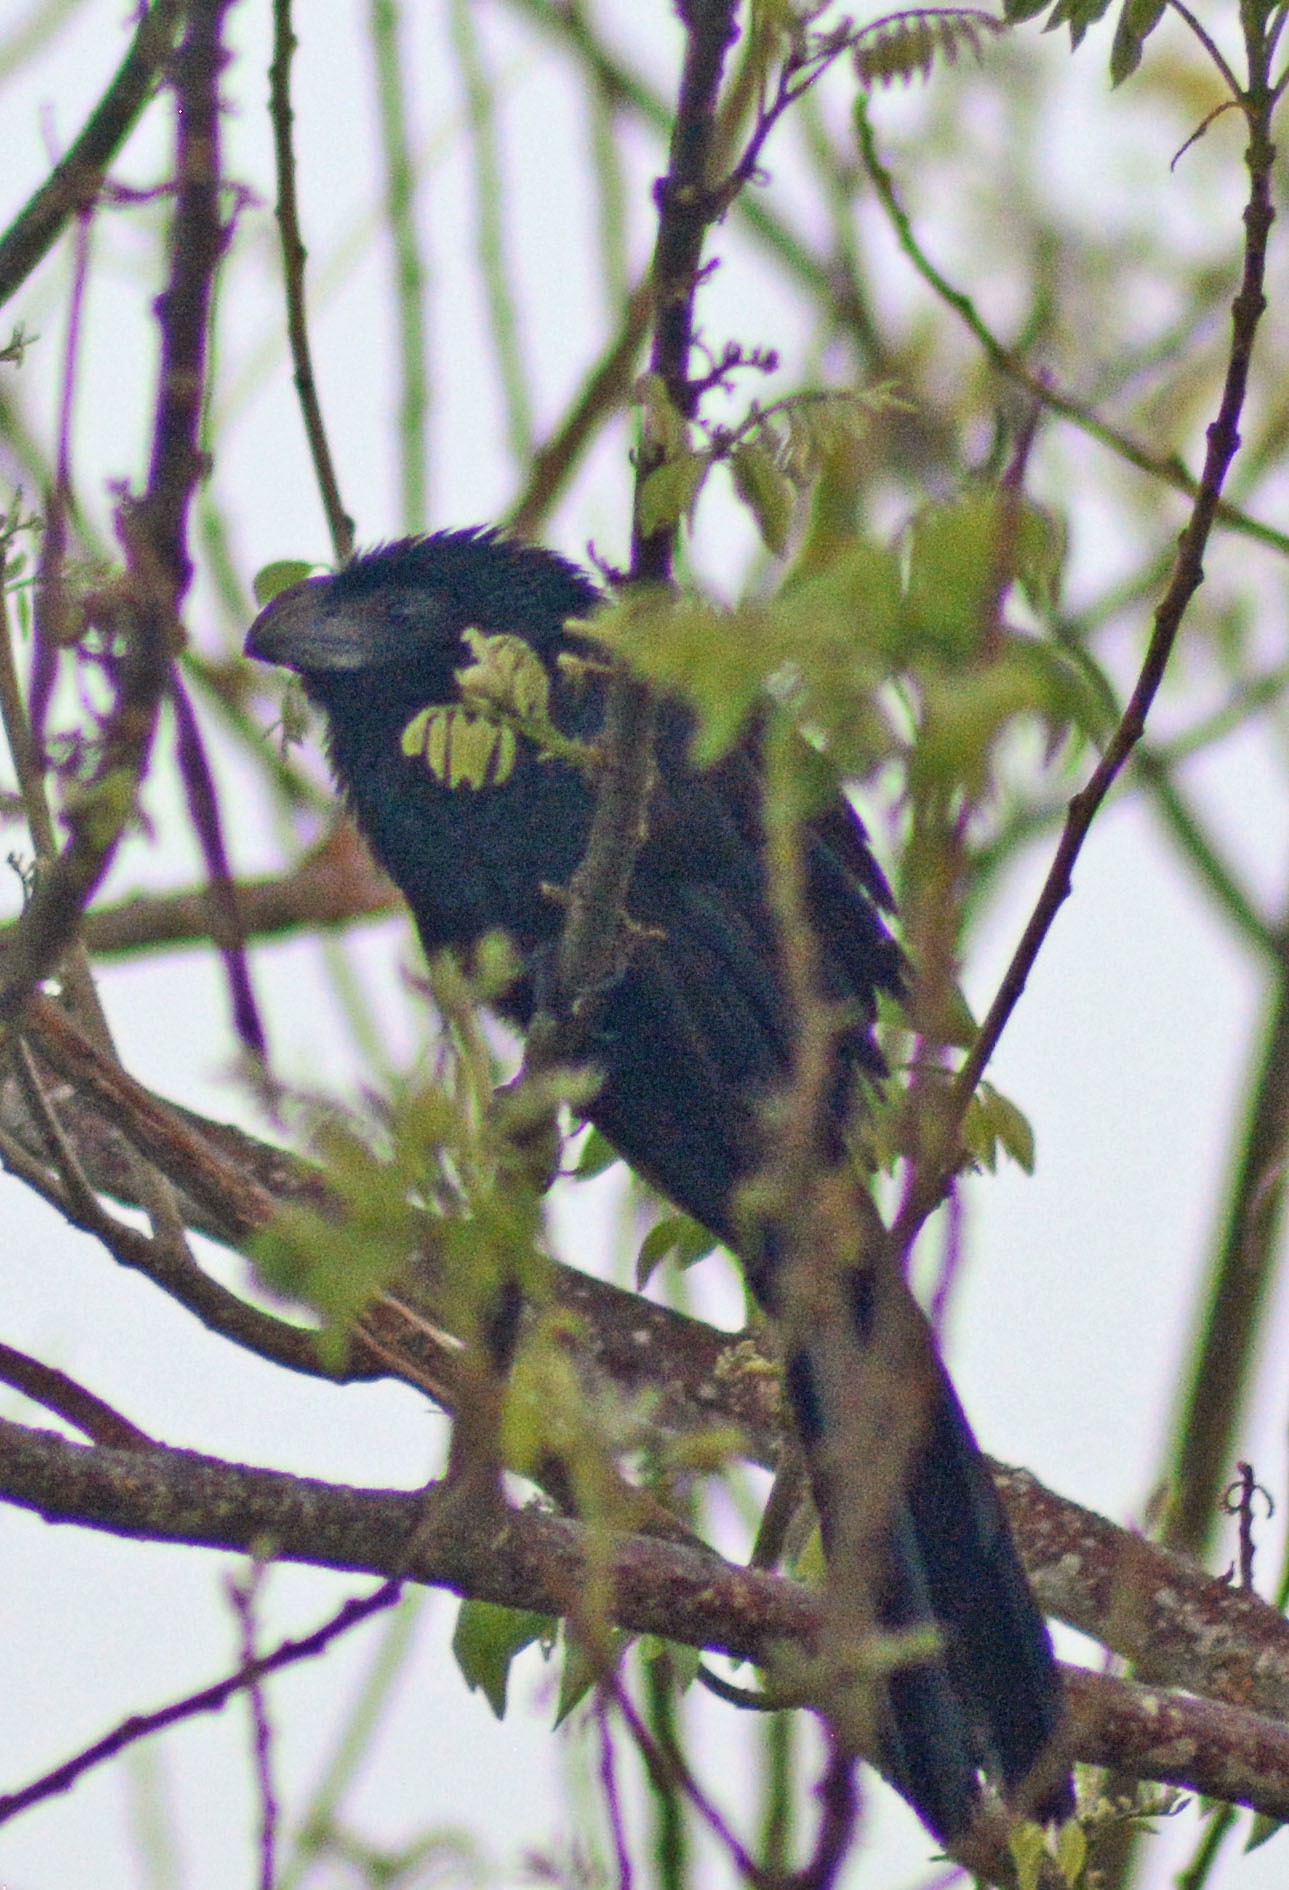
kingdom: Animalia
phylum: Chordata
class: Aves
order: Cuculiformes
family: Cuculidae
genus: Crotophaga
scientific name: Crotophaga sulcirostris
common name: Groove-billed ani
